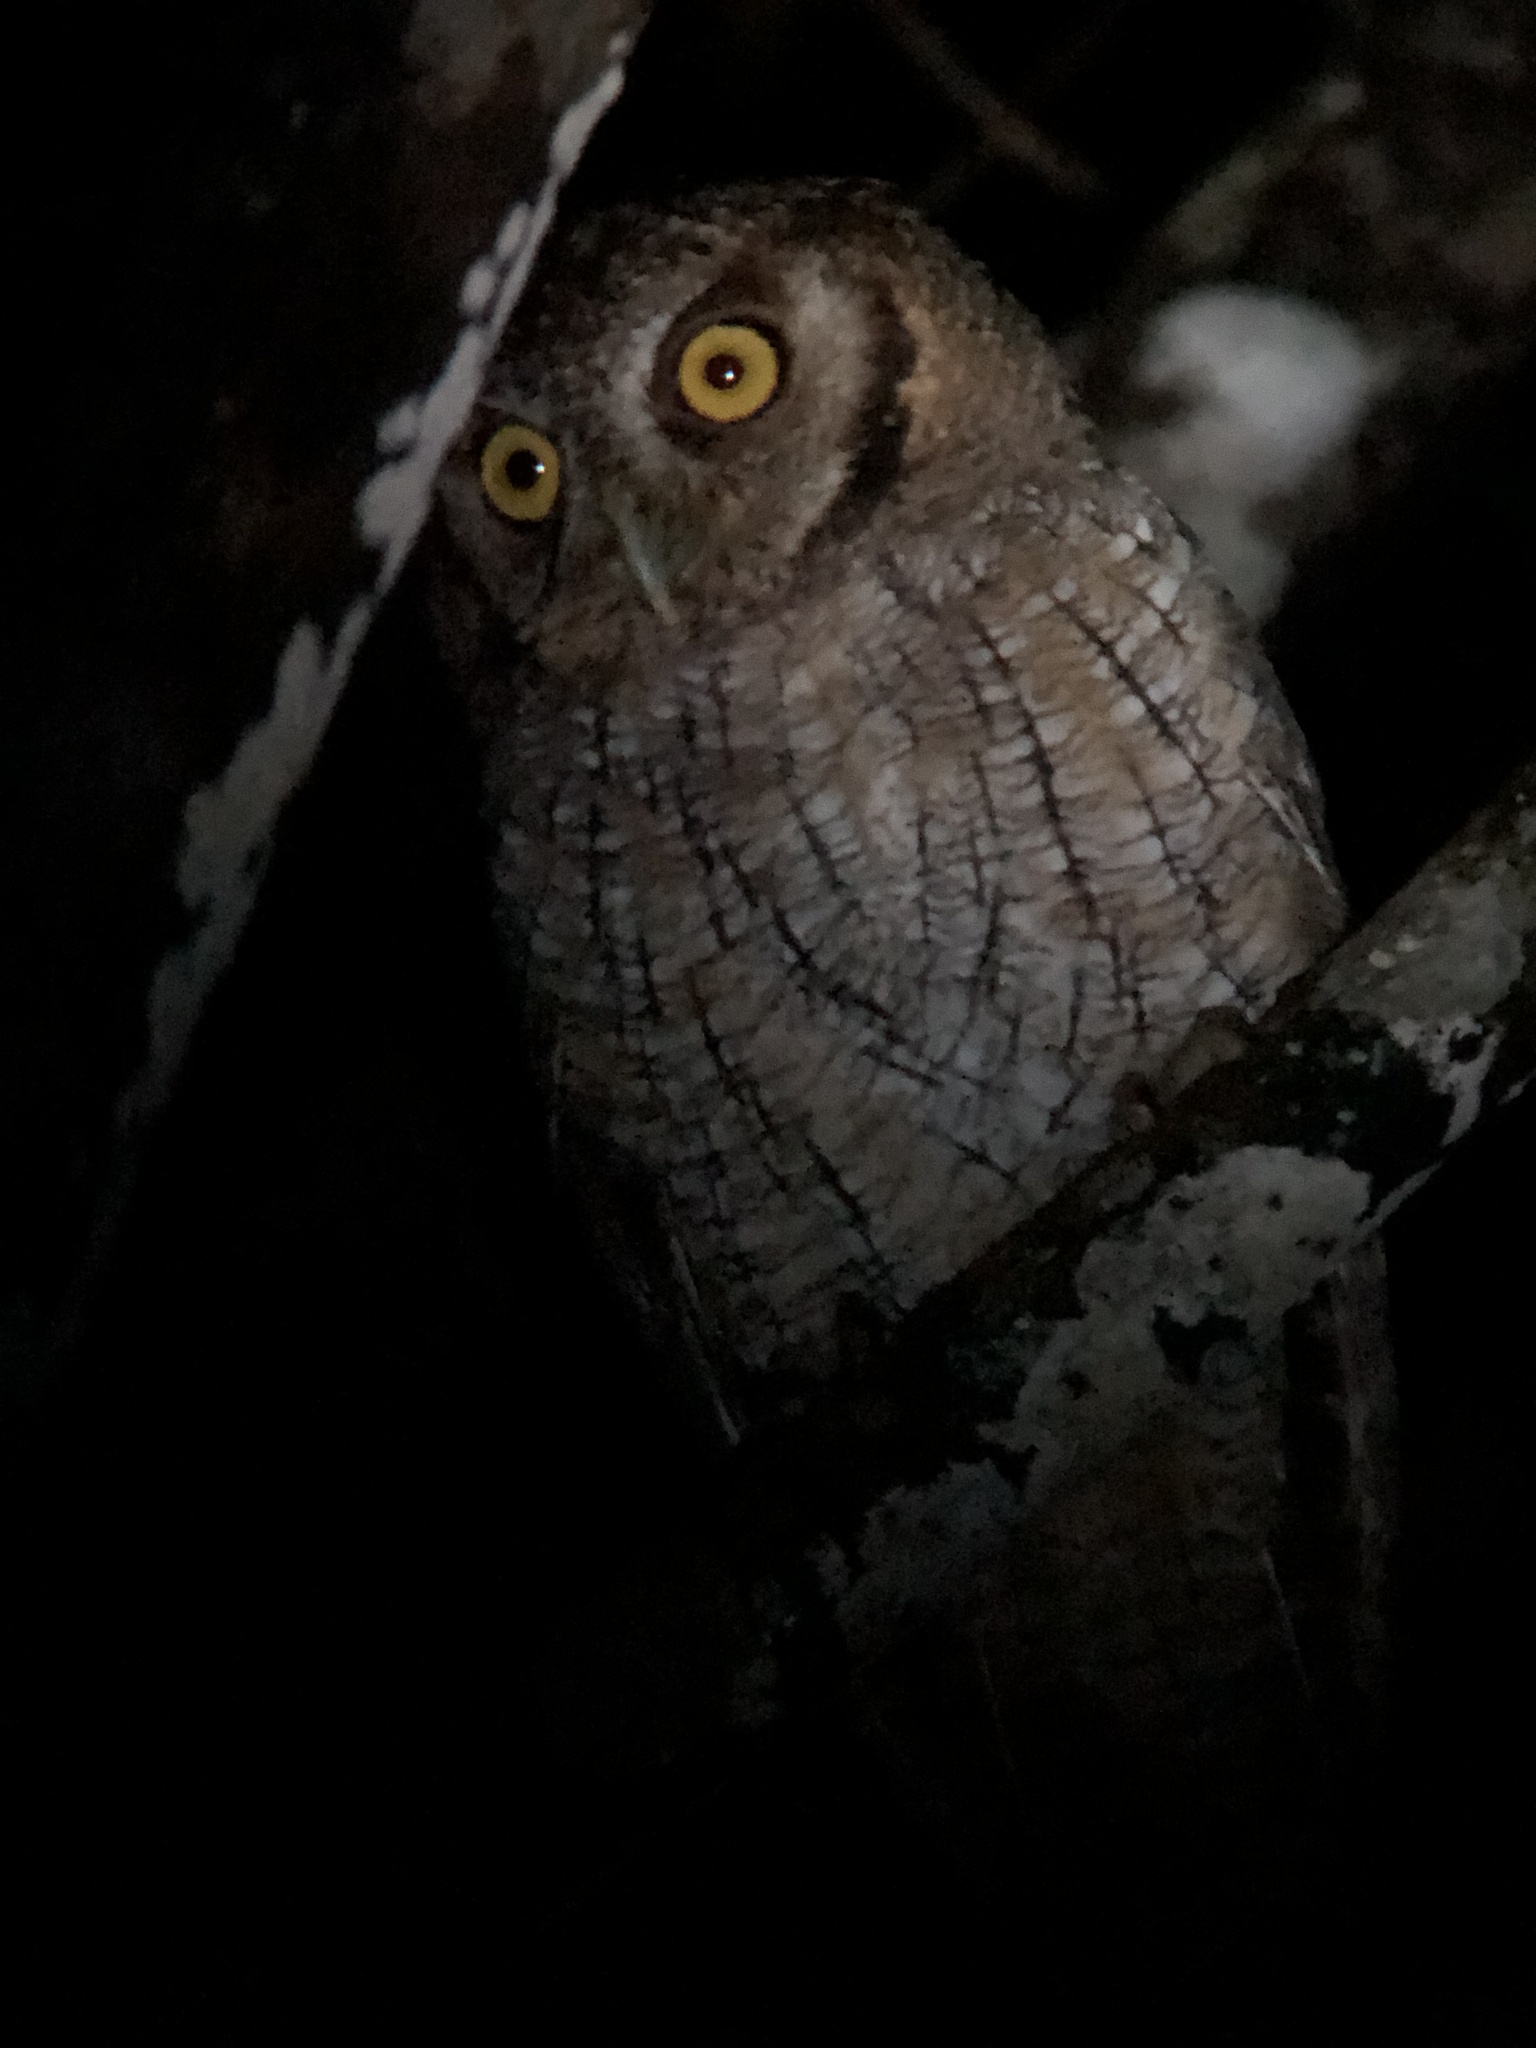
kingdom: Animalia
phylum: Chordata
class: Aves
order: Strigiformes
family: Strigidae
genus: Megascops
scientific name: Megascops choliba
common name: Tropical screech-owl
